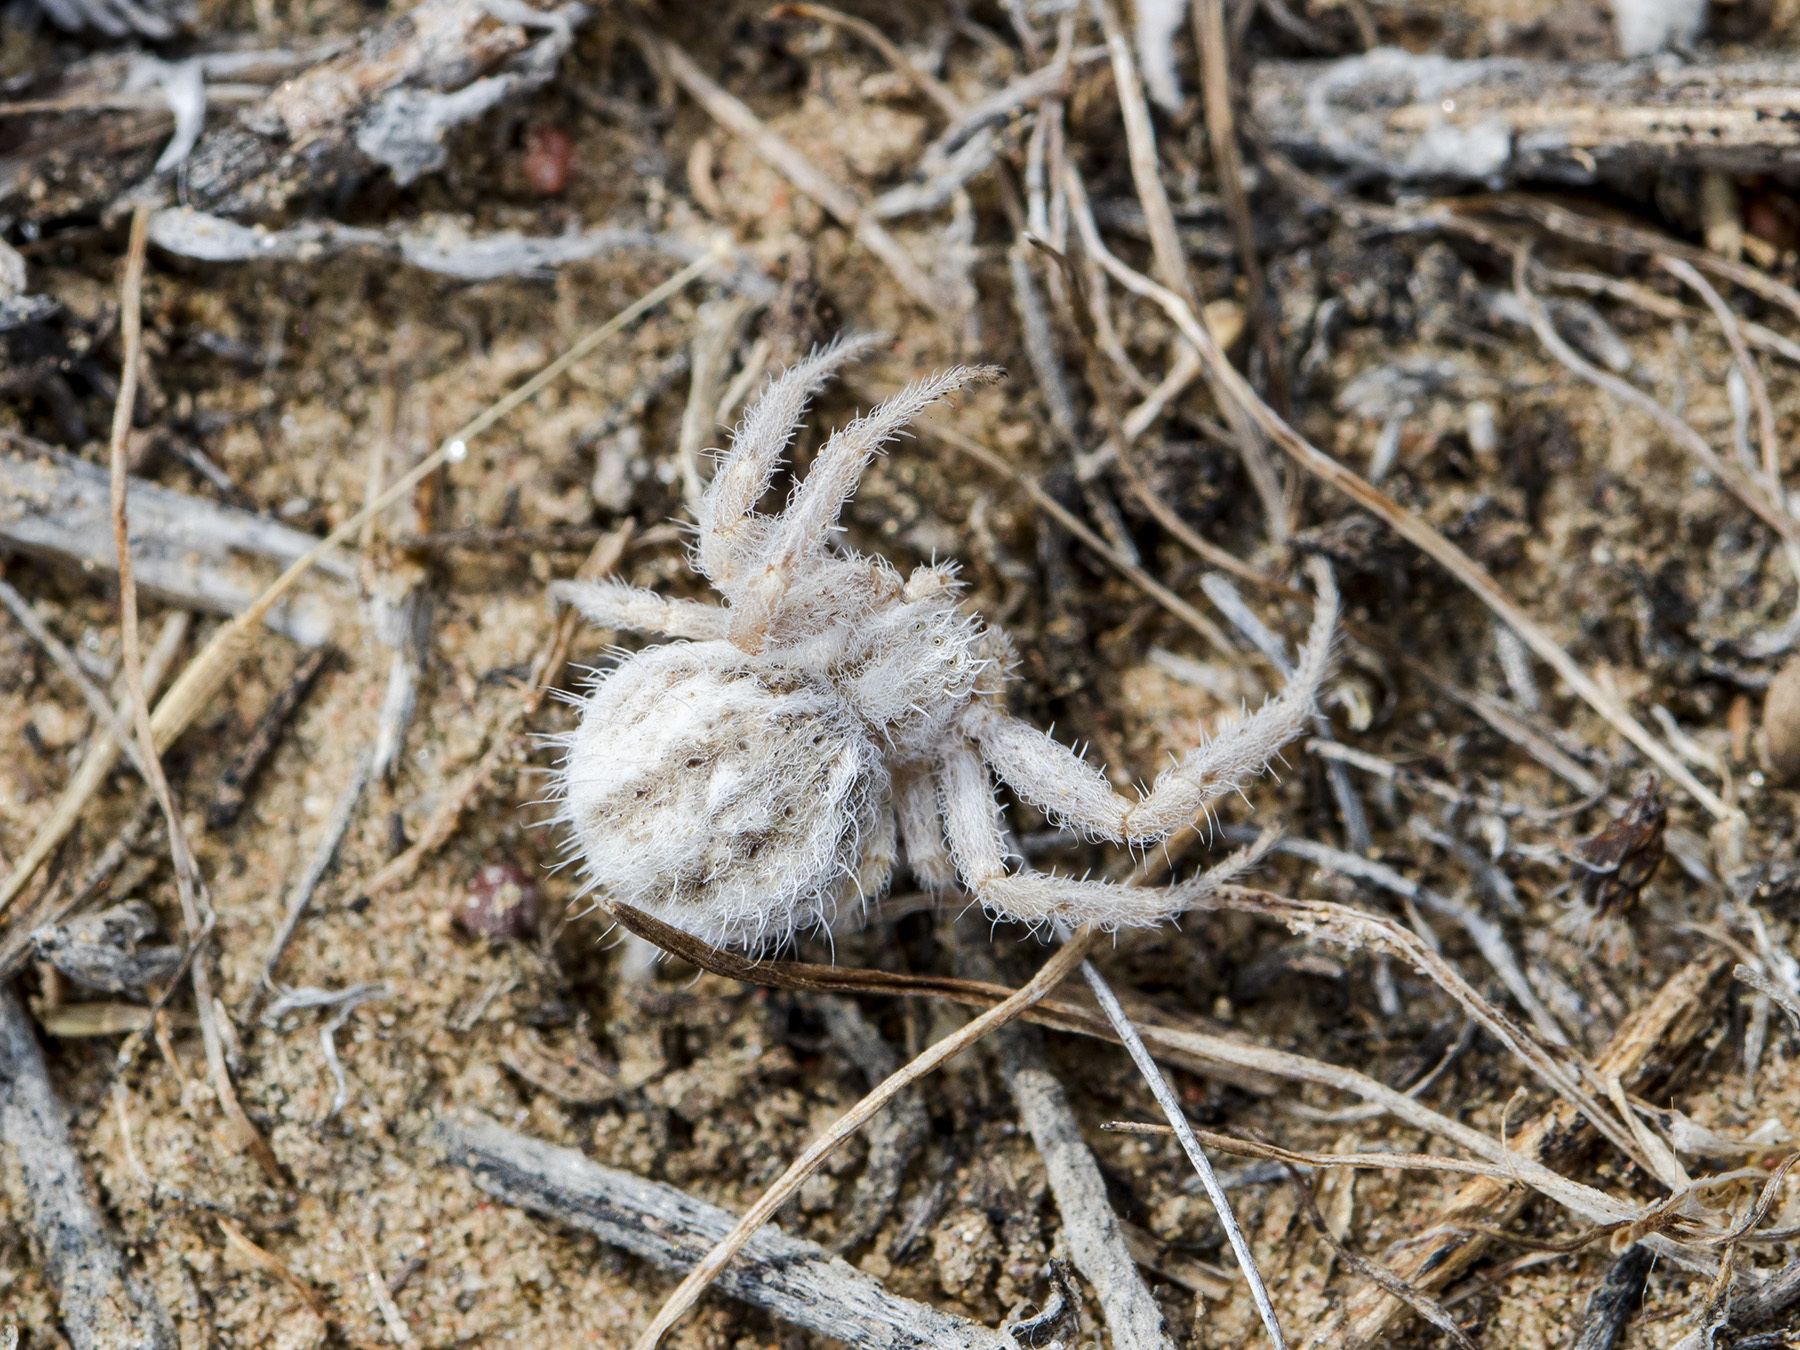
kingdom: Animalia
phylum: Arthropoda
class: Arachnida
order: Araneae
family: Thomisidae
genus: Heriaeus
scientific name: Heriaeus horridus
